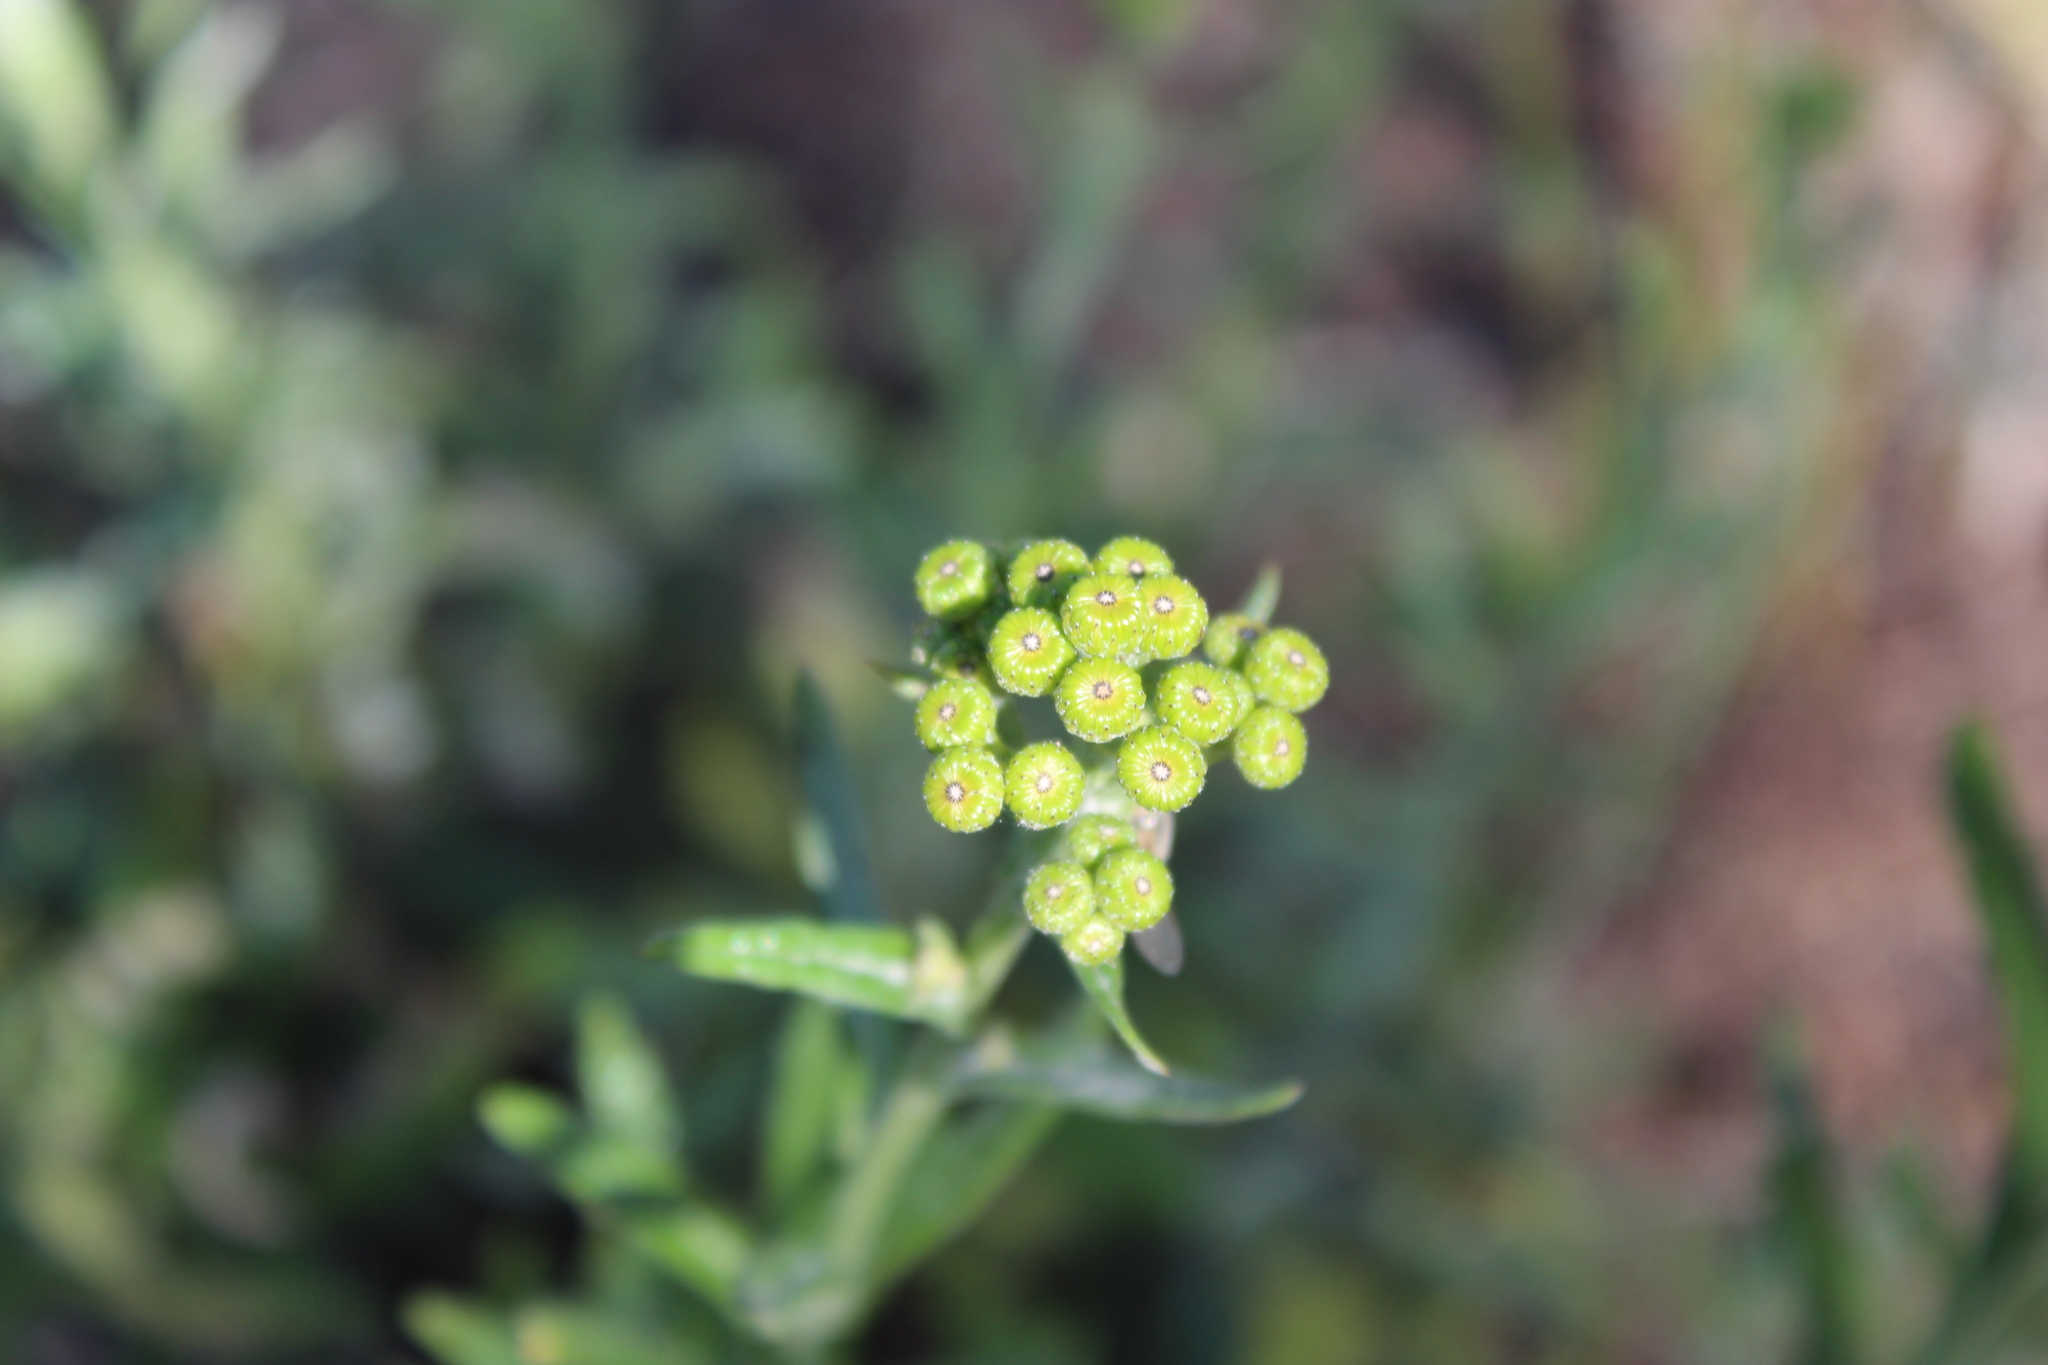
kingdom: Plantae
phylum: Tracheophyta
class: Magnoliopsida
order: Asterales
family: Asteraceae
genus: Senecio
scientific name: Senecio pterophorus
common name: Shoddy ragwort
